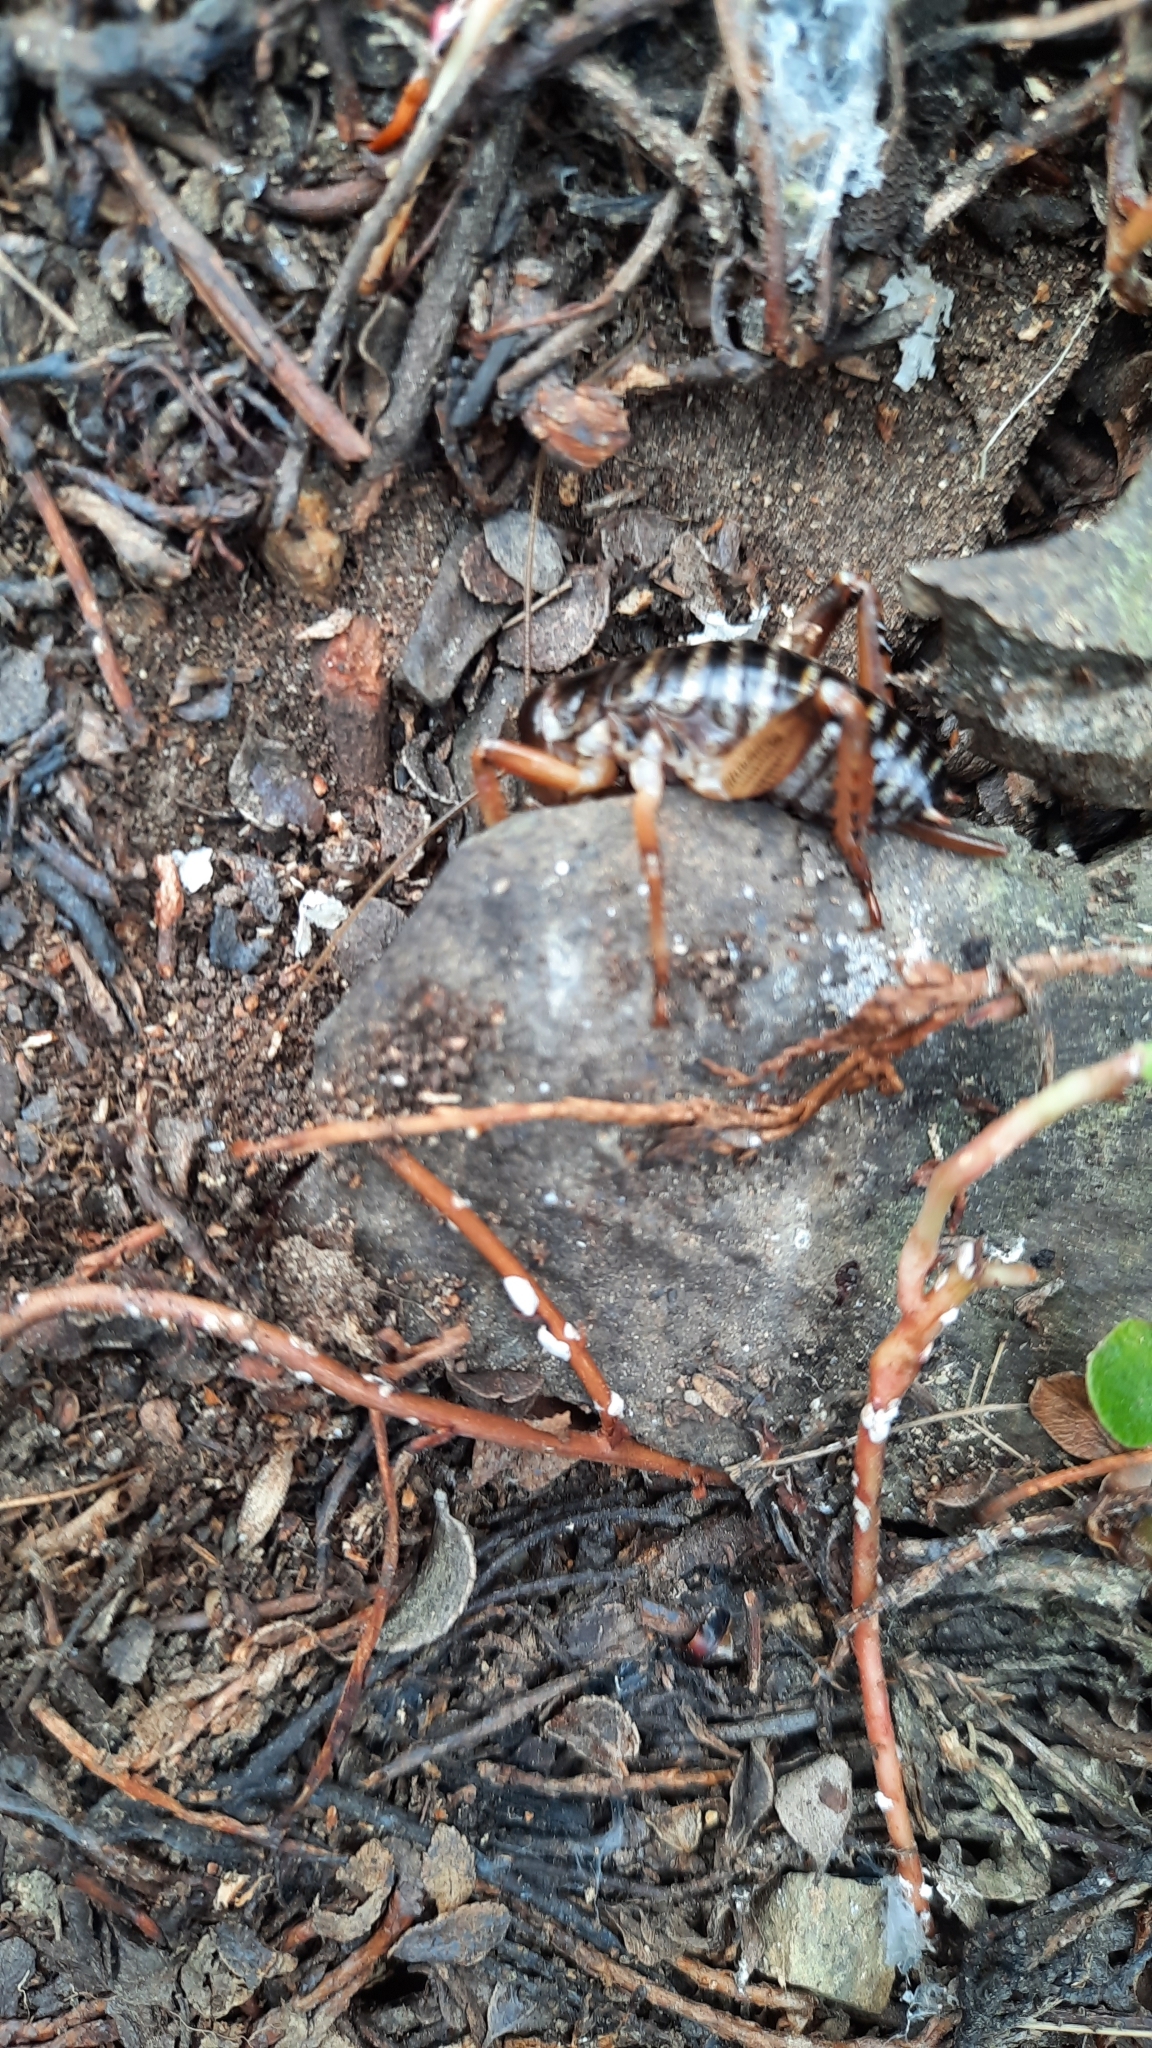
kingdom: Animalia
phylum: Arthropoda
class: Insecta
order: Orthoptera
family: Anostostomatidae
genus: Hemideina
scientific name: Hemideina maori
